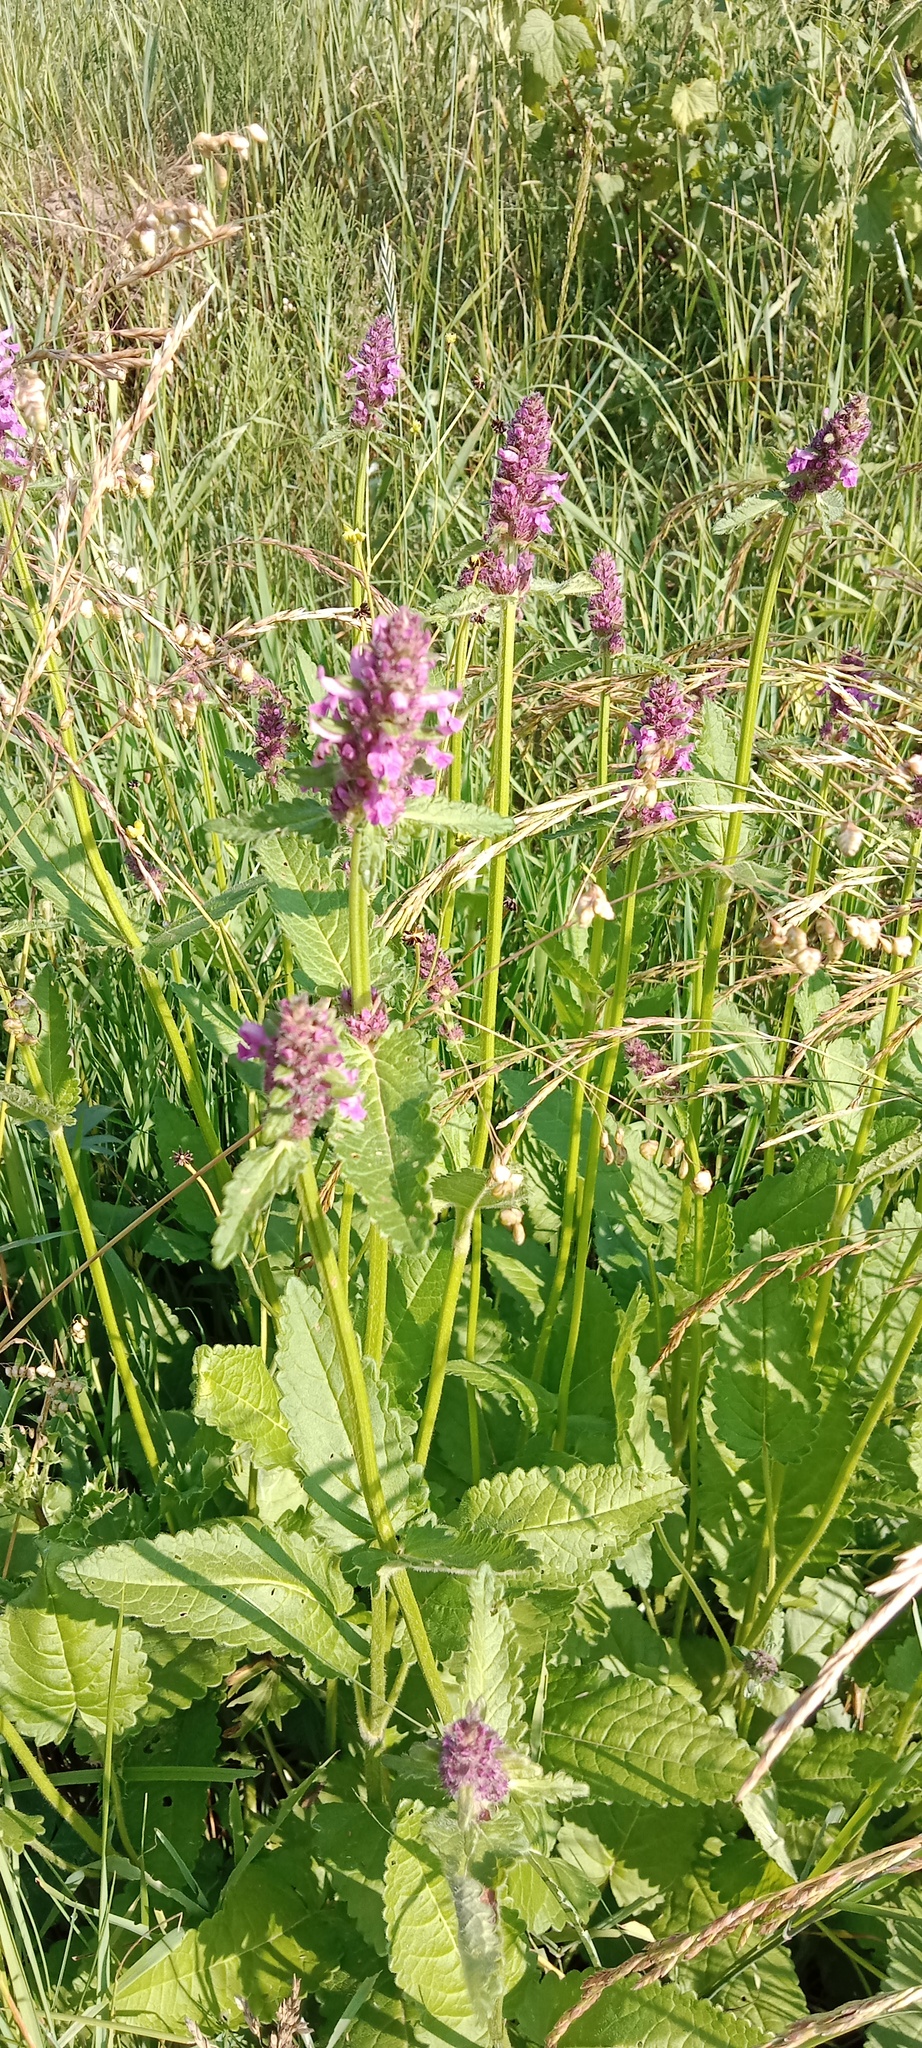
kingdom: Plantae
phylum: Tracheophyta
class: Magnoliopsida
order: Lamiales
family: Lamiaceae
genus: Betonica
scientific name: Betonica officinalis
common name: Bishop's-wort
